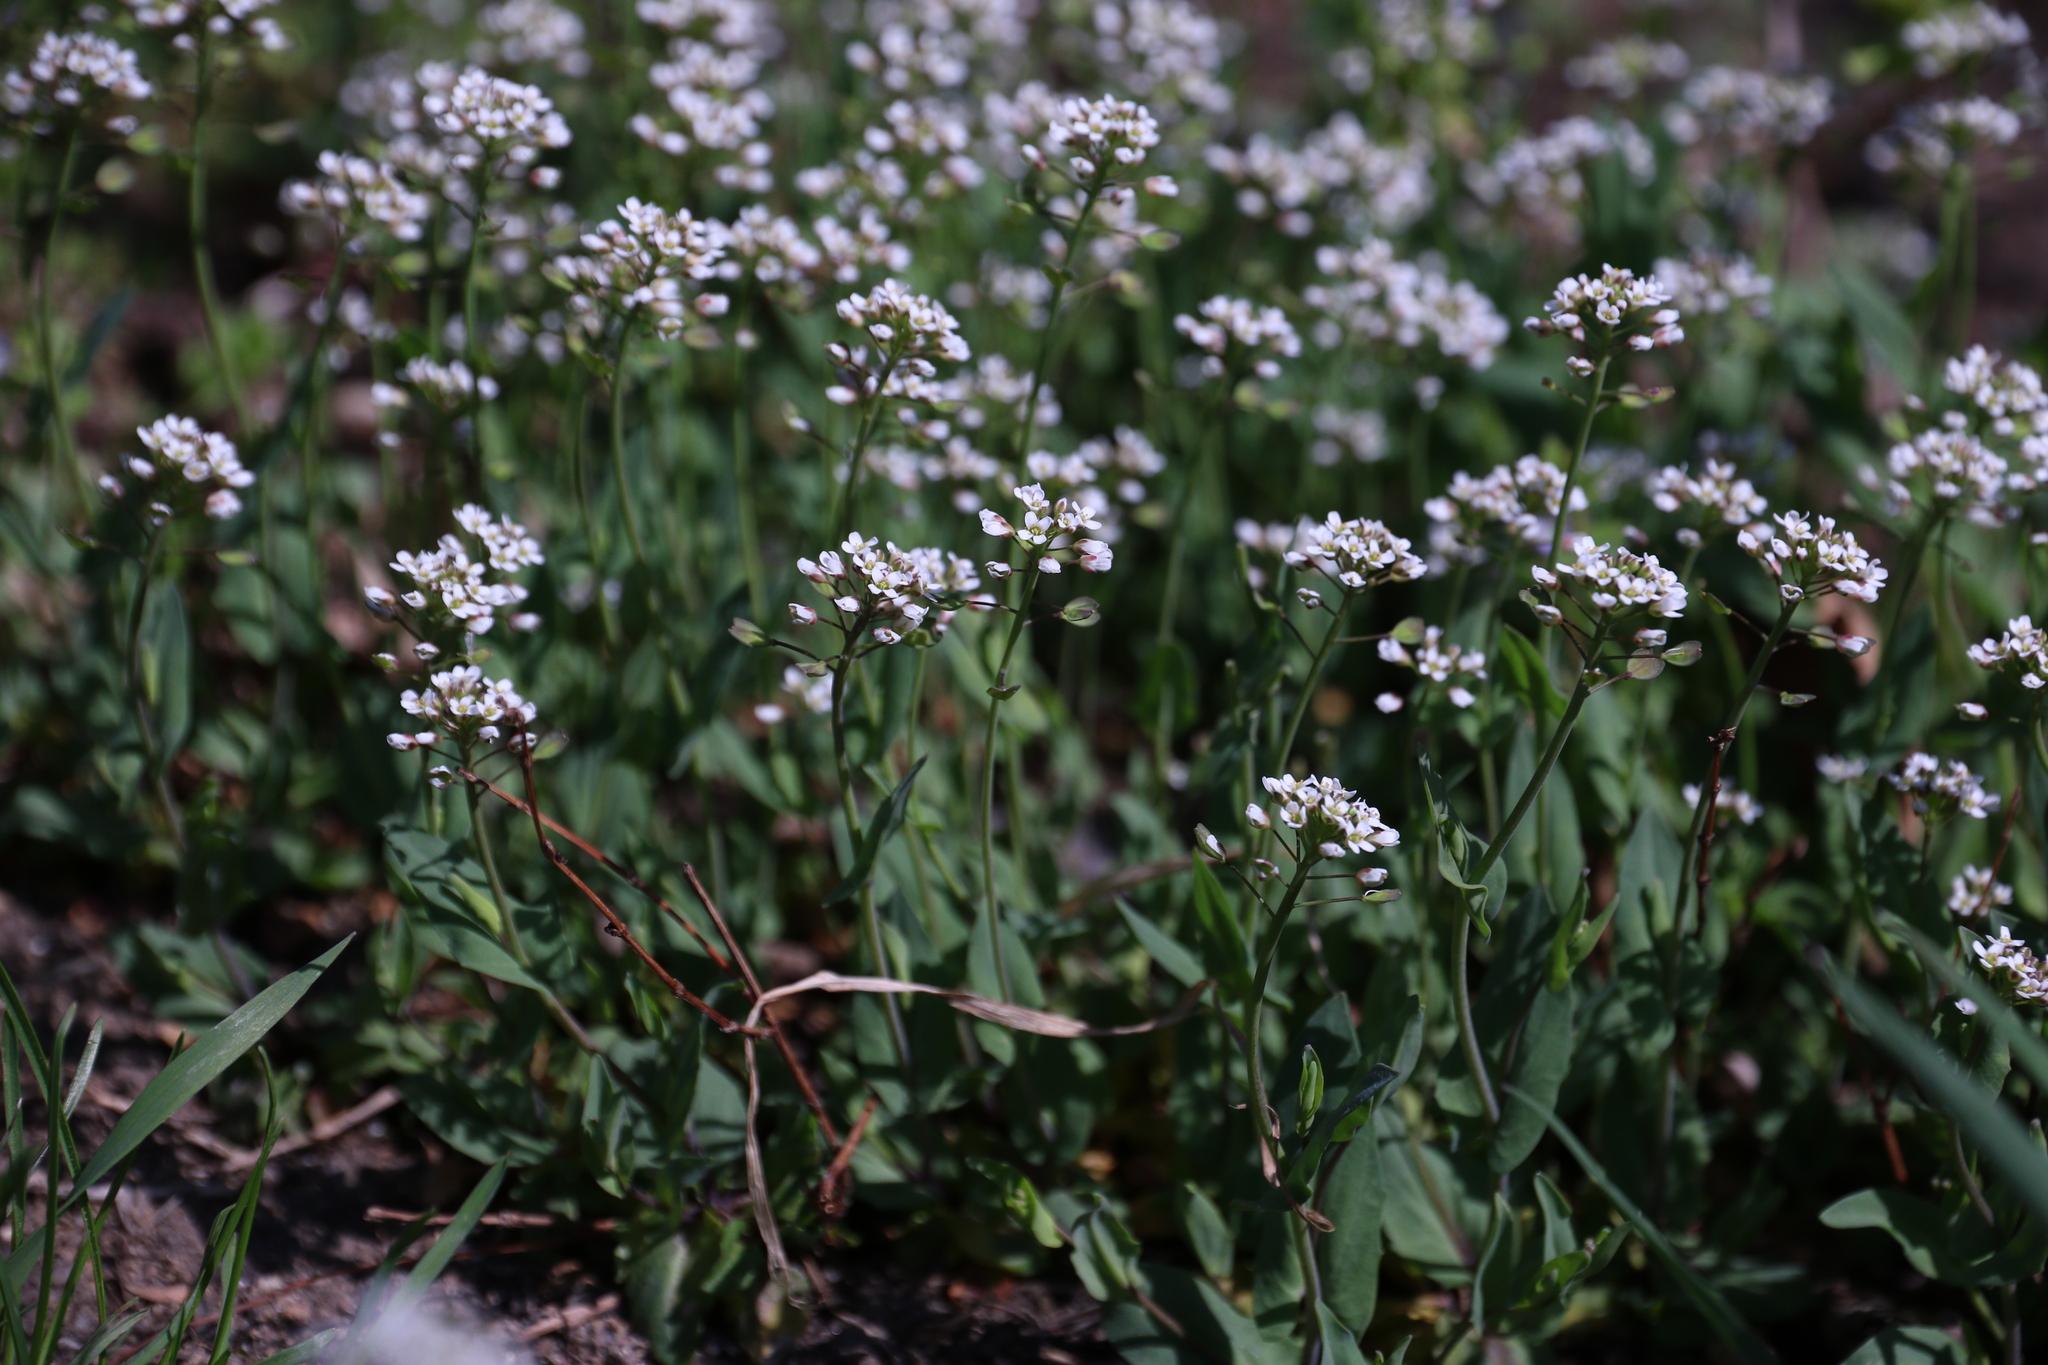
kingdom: Plantae
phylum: Tracheophyta
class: Magnoliopsida
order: Brassicales
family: Brassicaceae
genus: Noccaea
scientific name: Noccaea perfoliata
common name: Perfoliate pennycress
